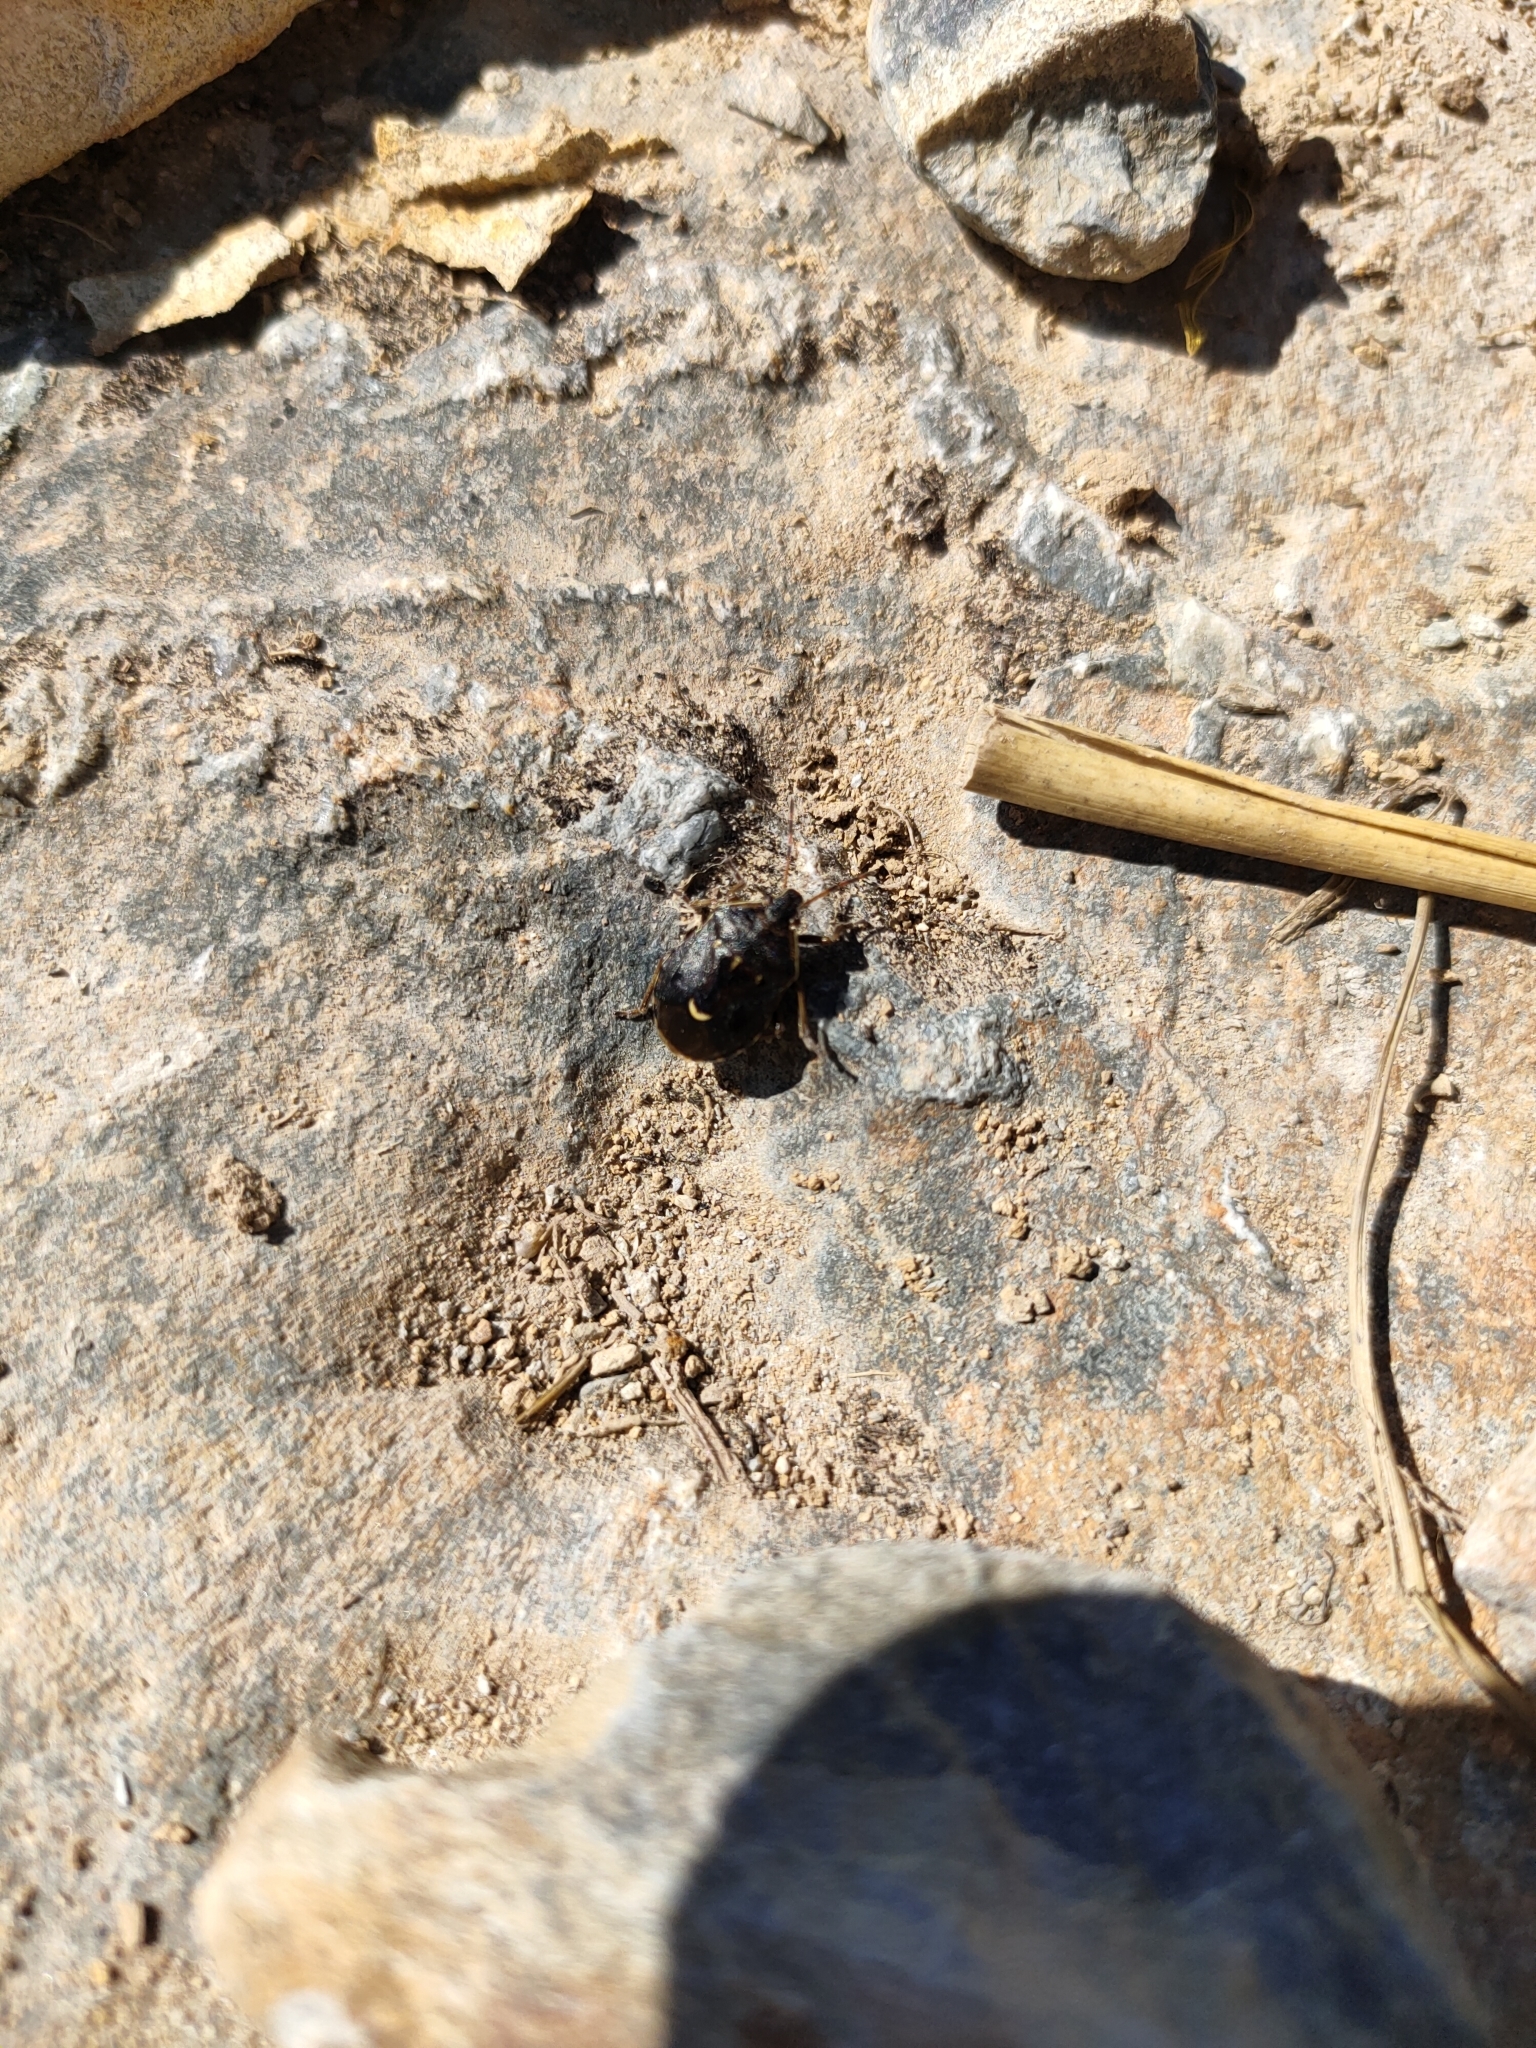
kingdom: Animalia
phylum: Arthropoda
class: Insecta
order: Hemiptera
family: Pentatomidae
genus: Cermatulus
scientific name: Cermatulus nasalis
